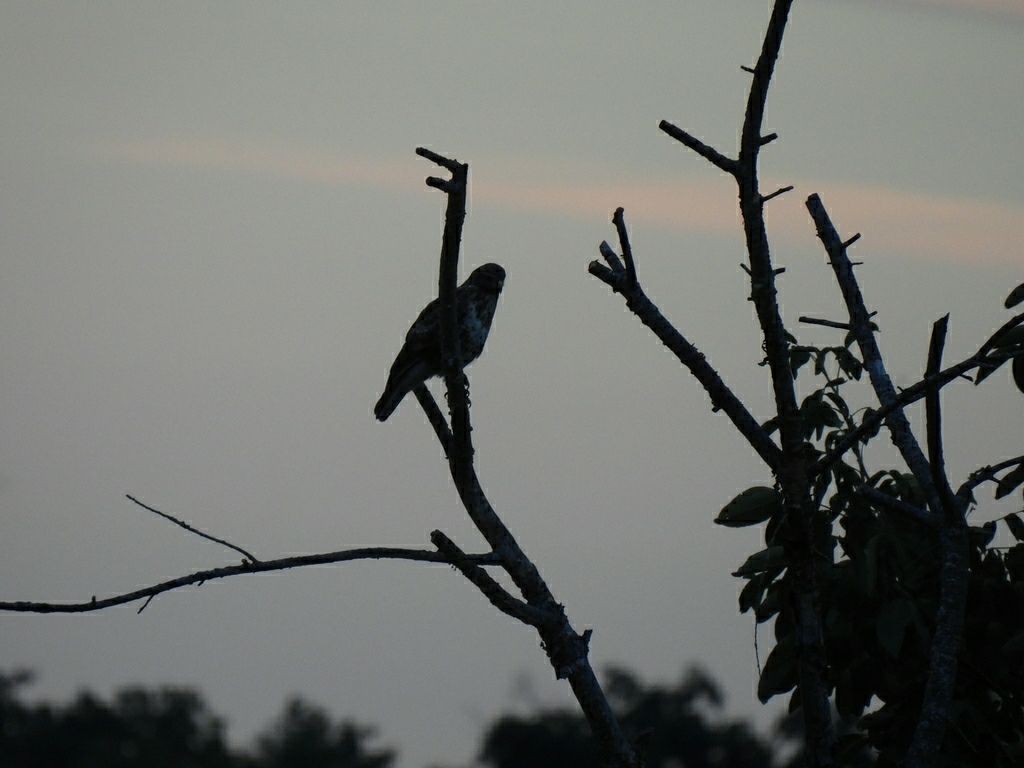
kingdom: Animalia
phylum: Chordata
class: Aves
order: Accipitriformes
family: Accipitridae
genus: Buteo
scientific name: Buteo buteo
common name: Common buzzard
